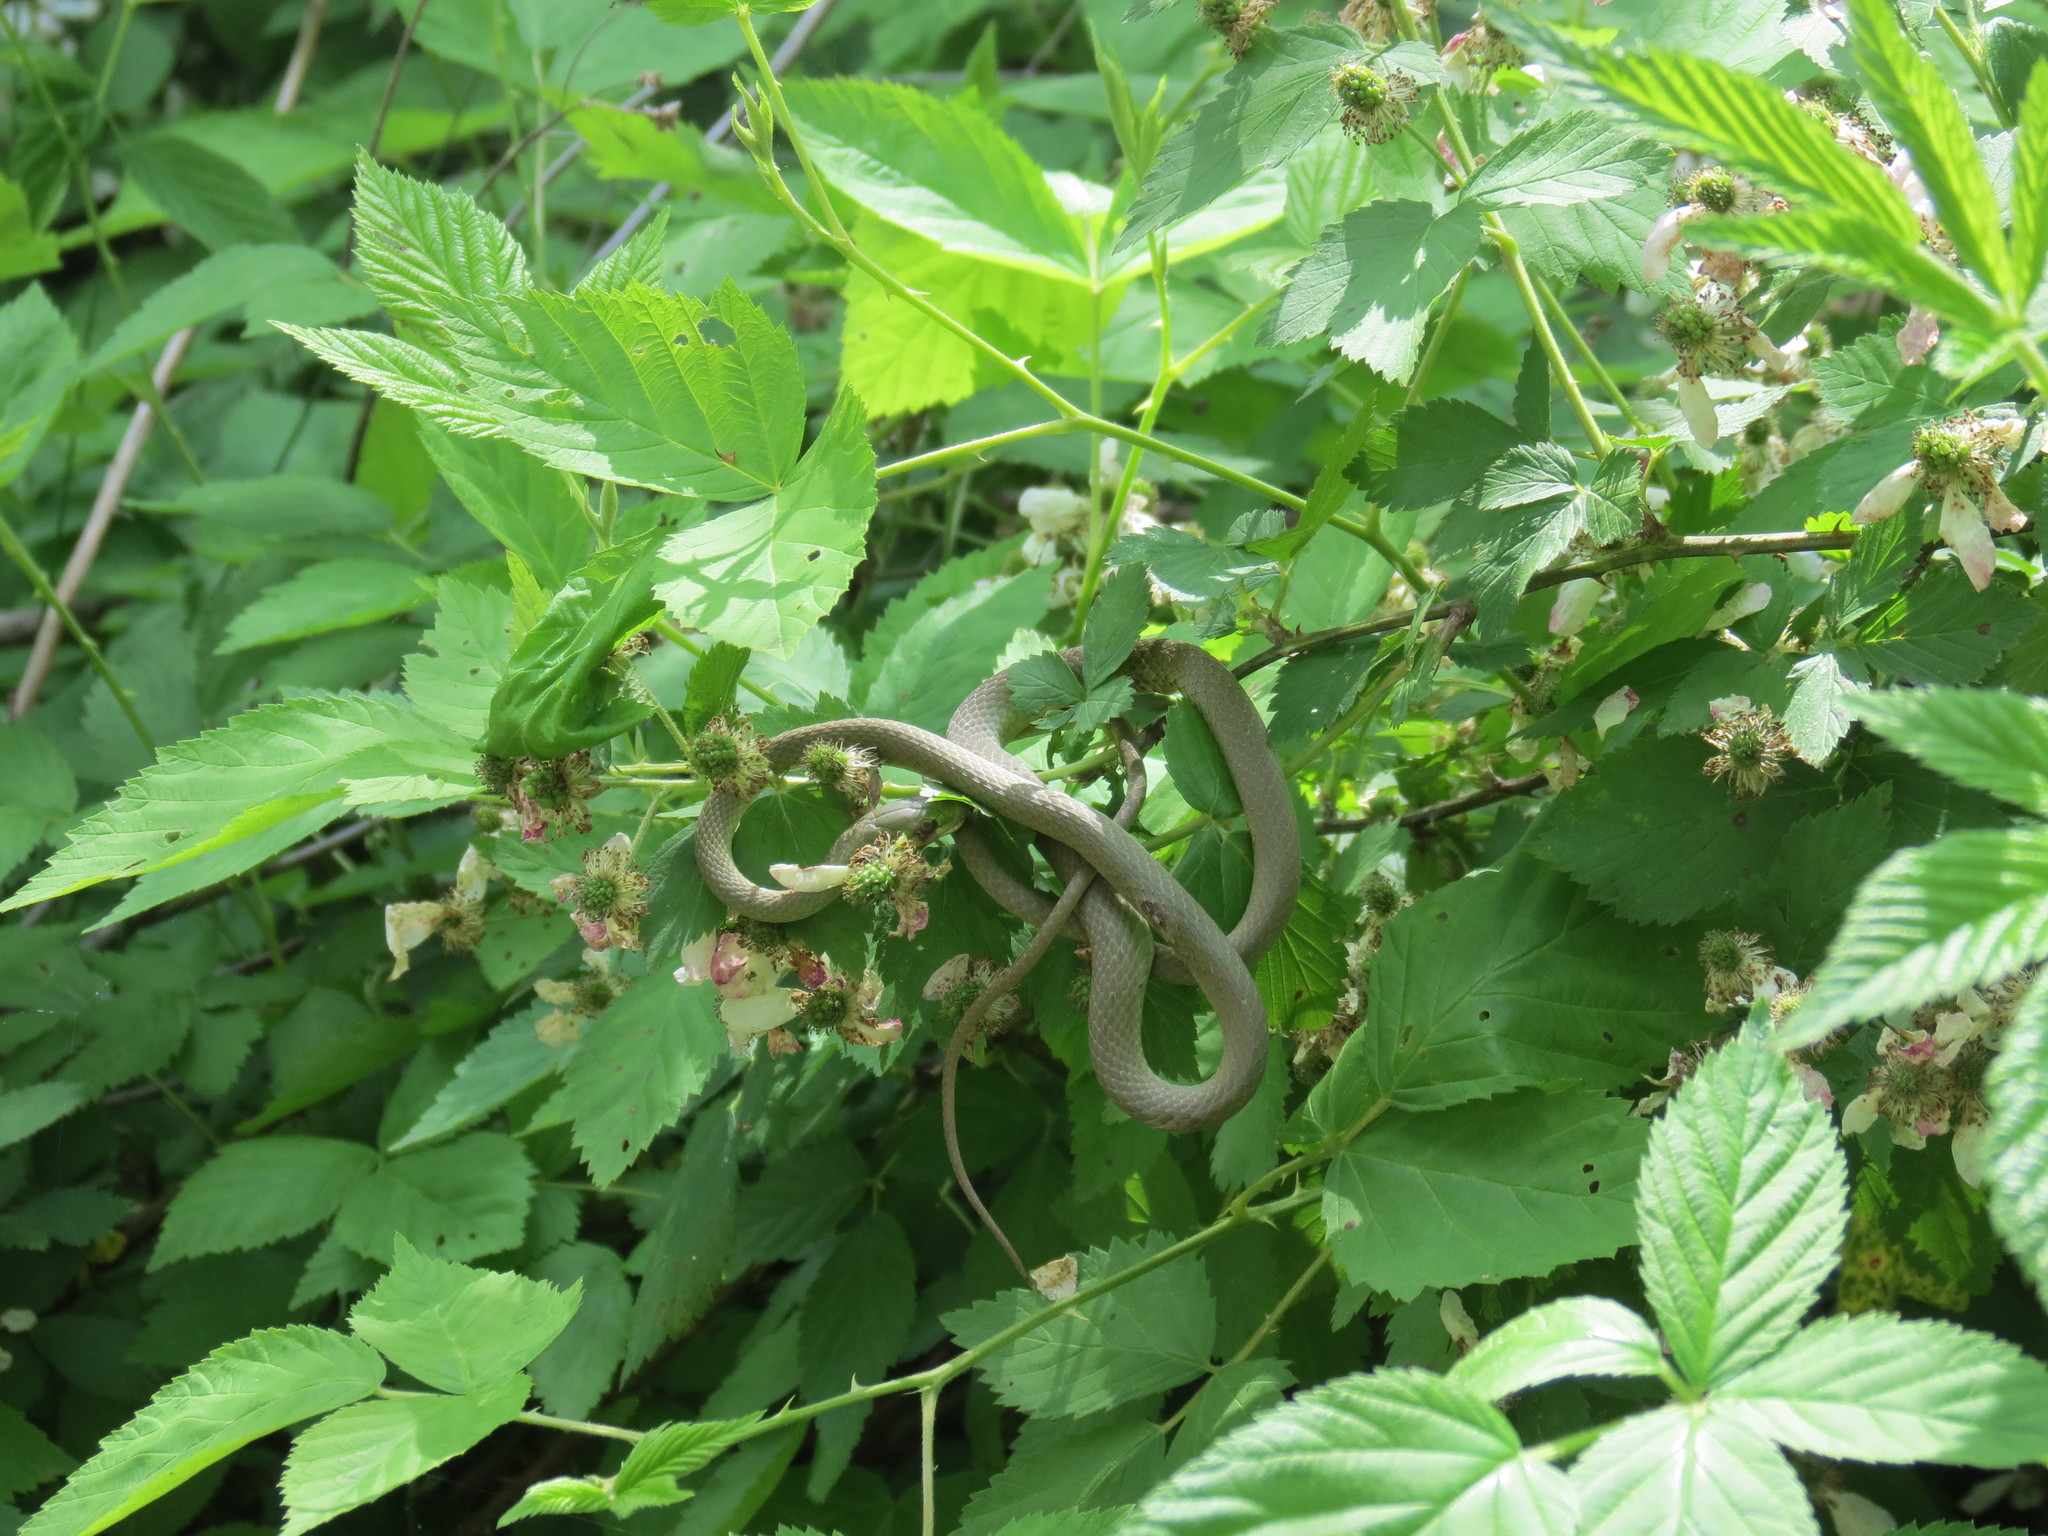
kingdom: Animalia
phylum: Chordata
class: Squamata
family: Colubridae
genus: Opheodrys
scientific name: Opheodrys aestivus
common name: Rough greensnake
